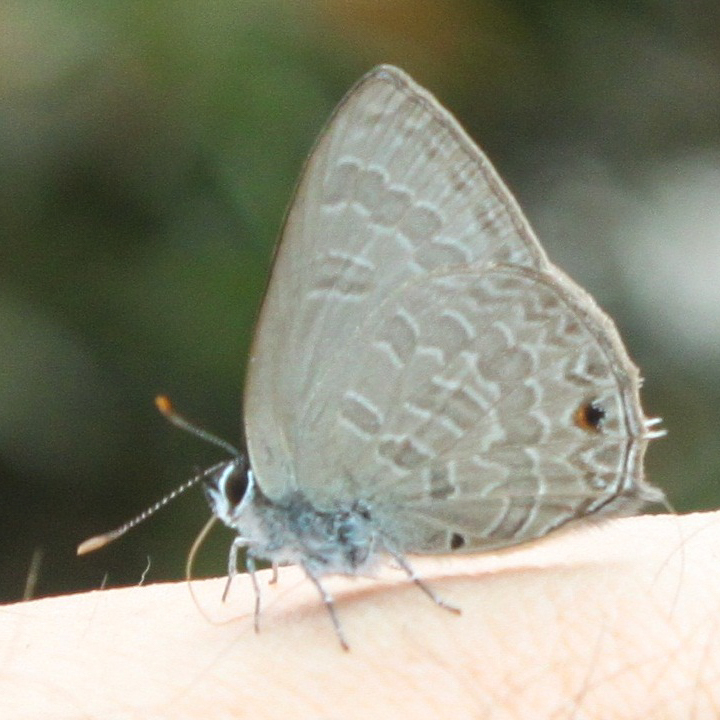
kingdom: Animalia
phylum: Arthropoda
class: Insecta
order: Lepidoptera
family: Lycaenidae
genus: Anthene
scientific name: Anthene emolus
